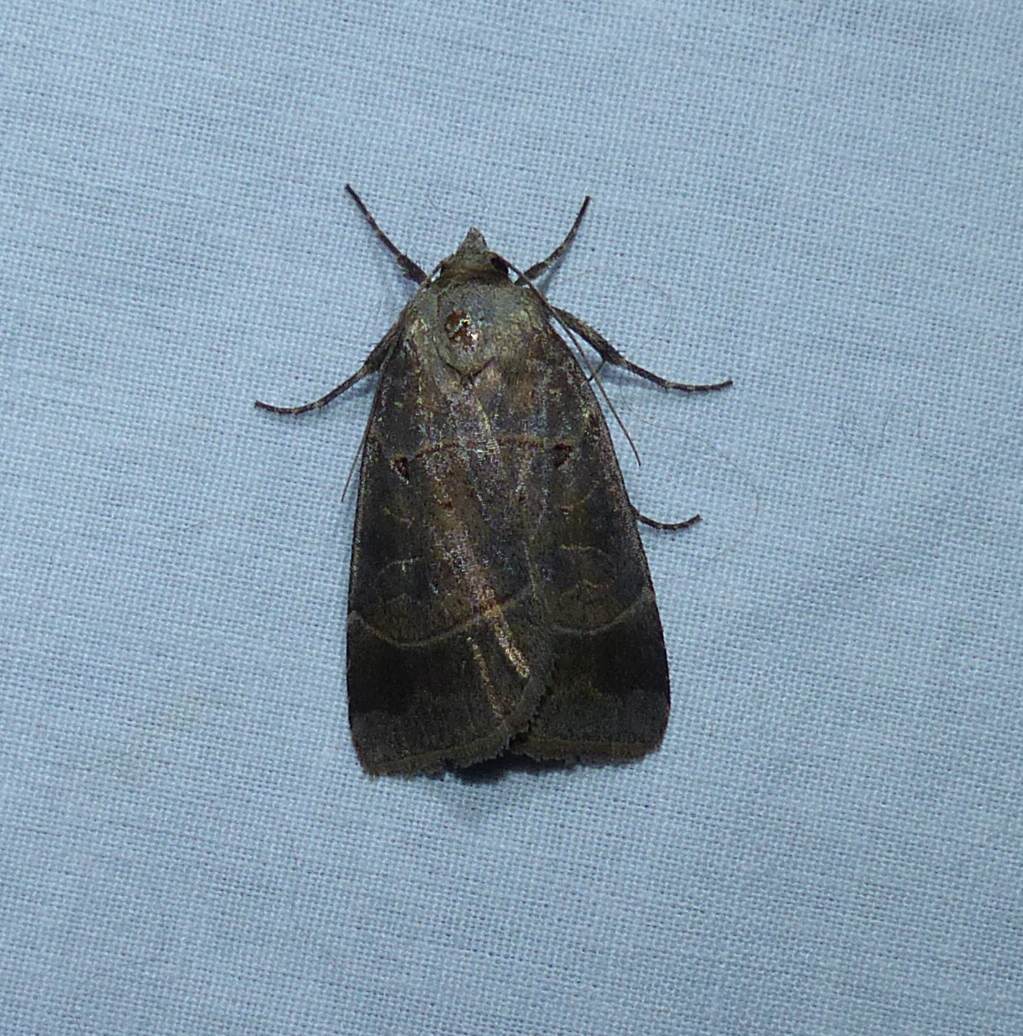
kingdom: Animalia
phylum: Arthropoda
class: Insecta
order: Lepidoptera
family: Noctuidae
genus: Agnorisma
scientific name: Agnorisma badinodis
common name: Pale-banded dart
